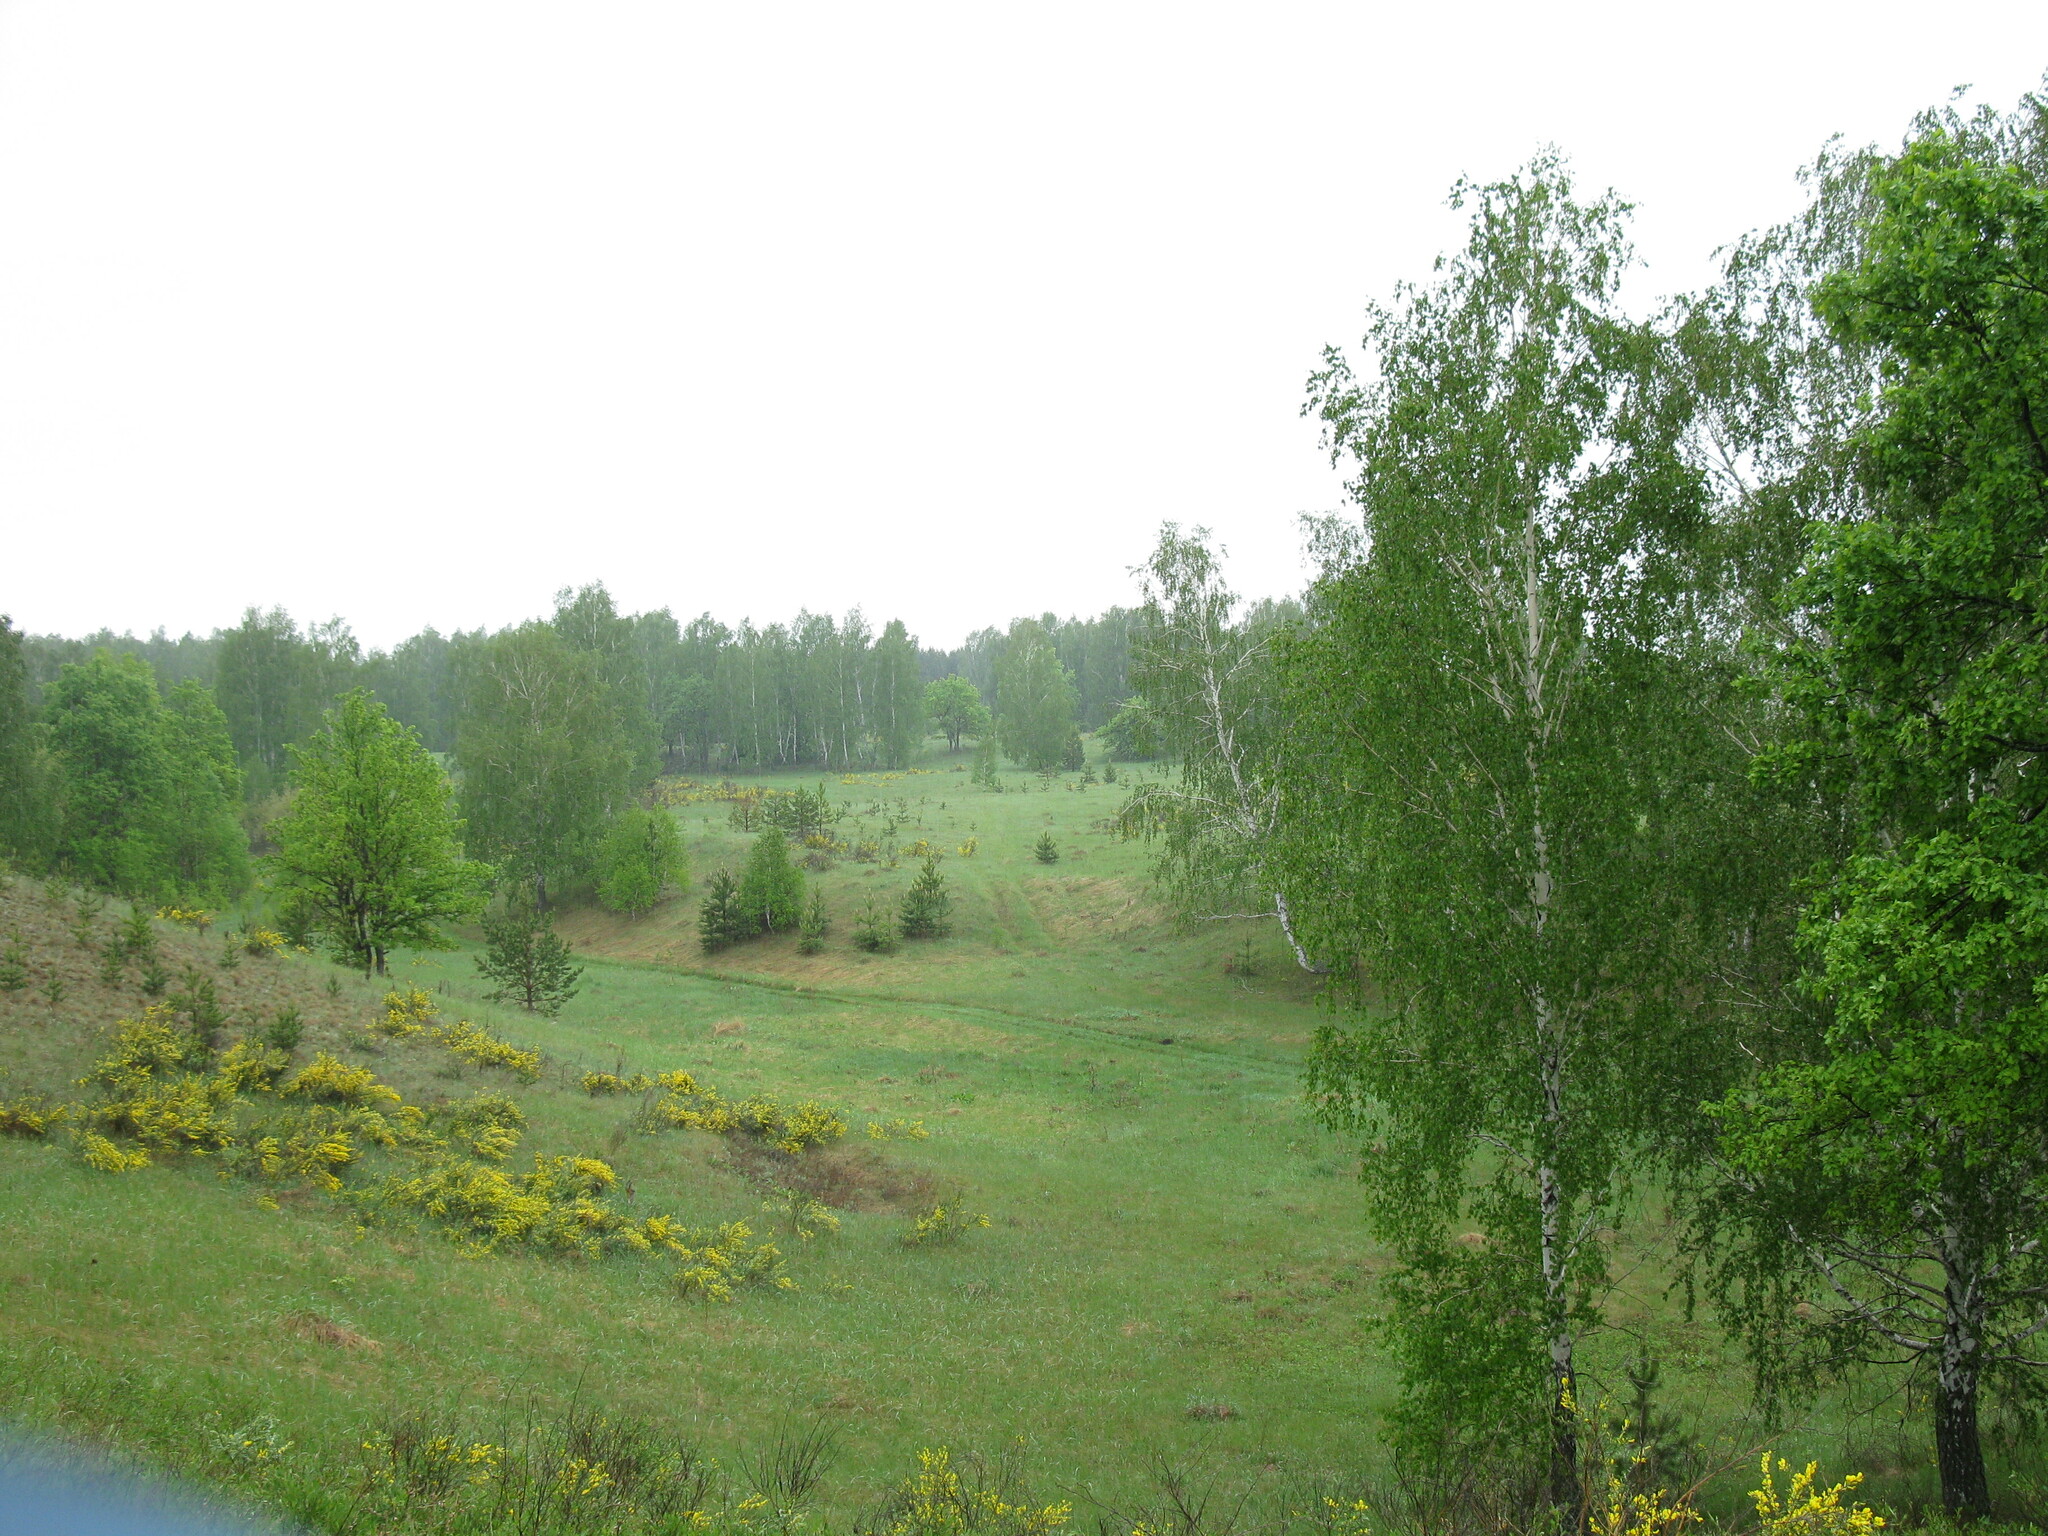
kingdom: Plantae
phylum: Tracheophyta
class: Magnoliopsida
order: Fabales
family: Fabaceae
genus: Chamaecytisus
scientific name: Chamaecytisus ruthenicus
